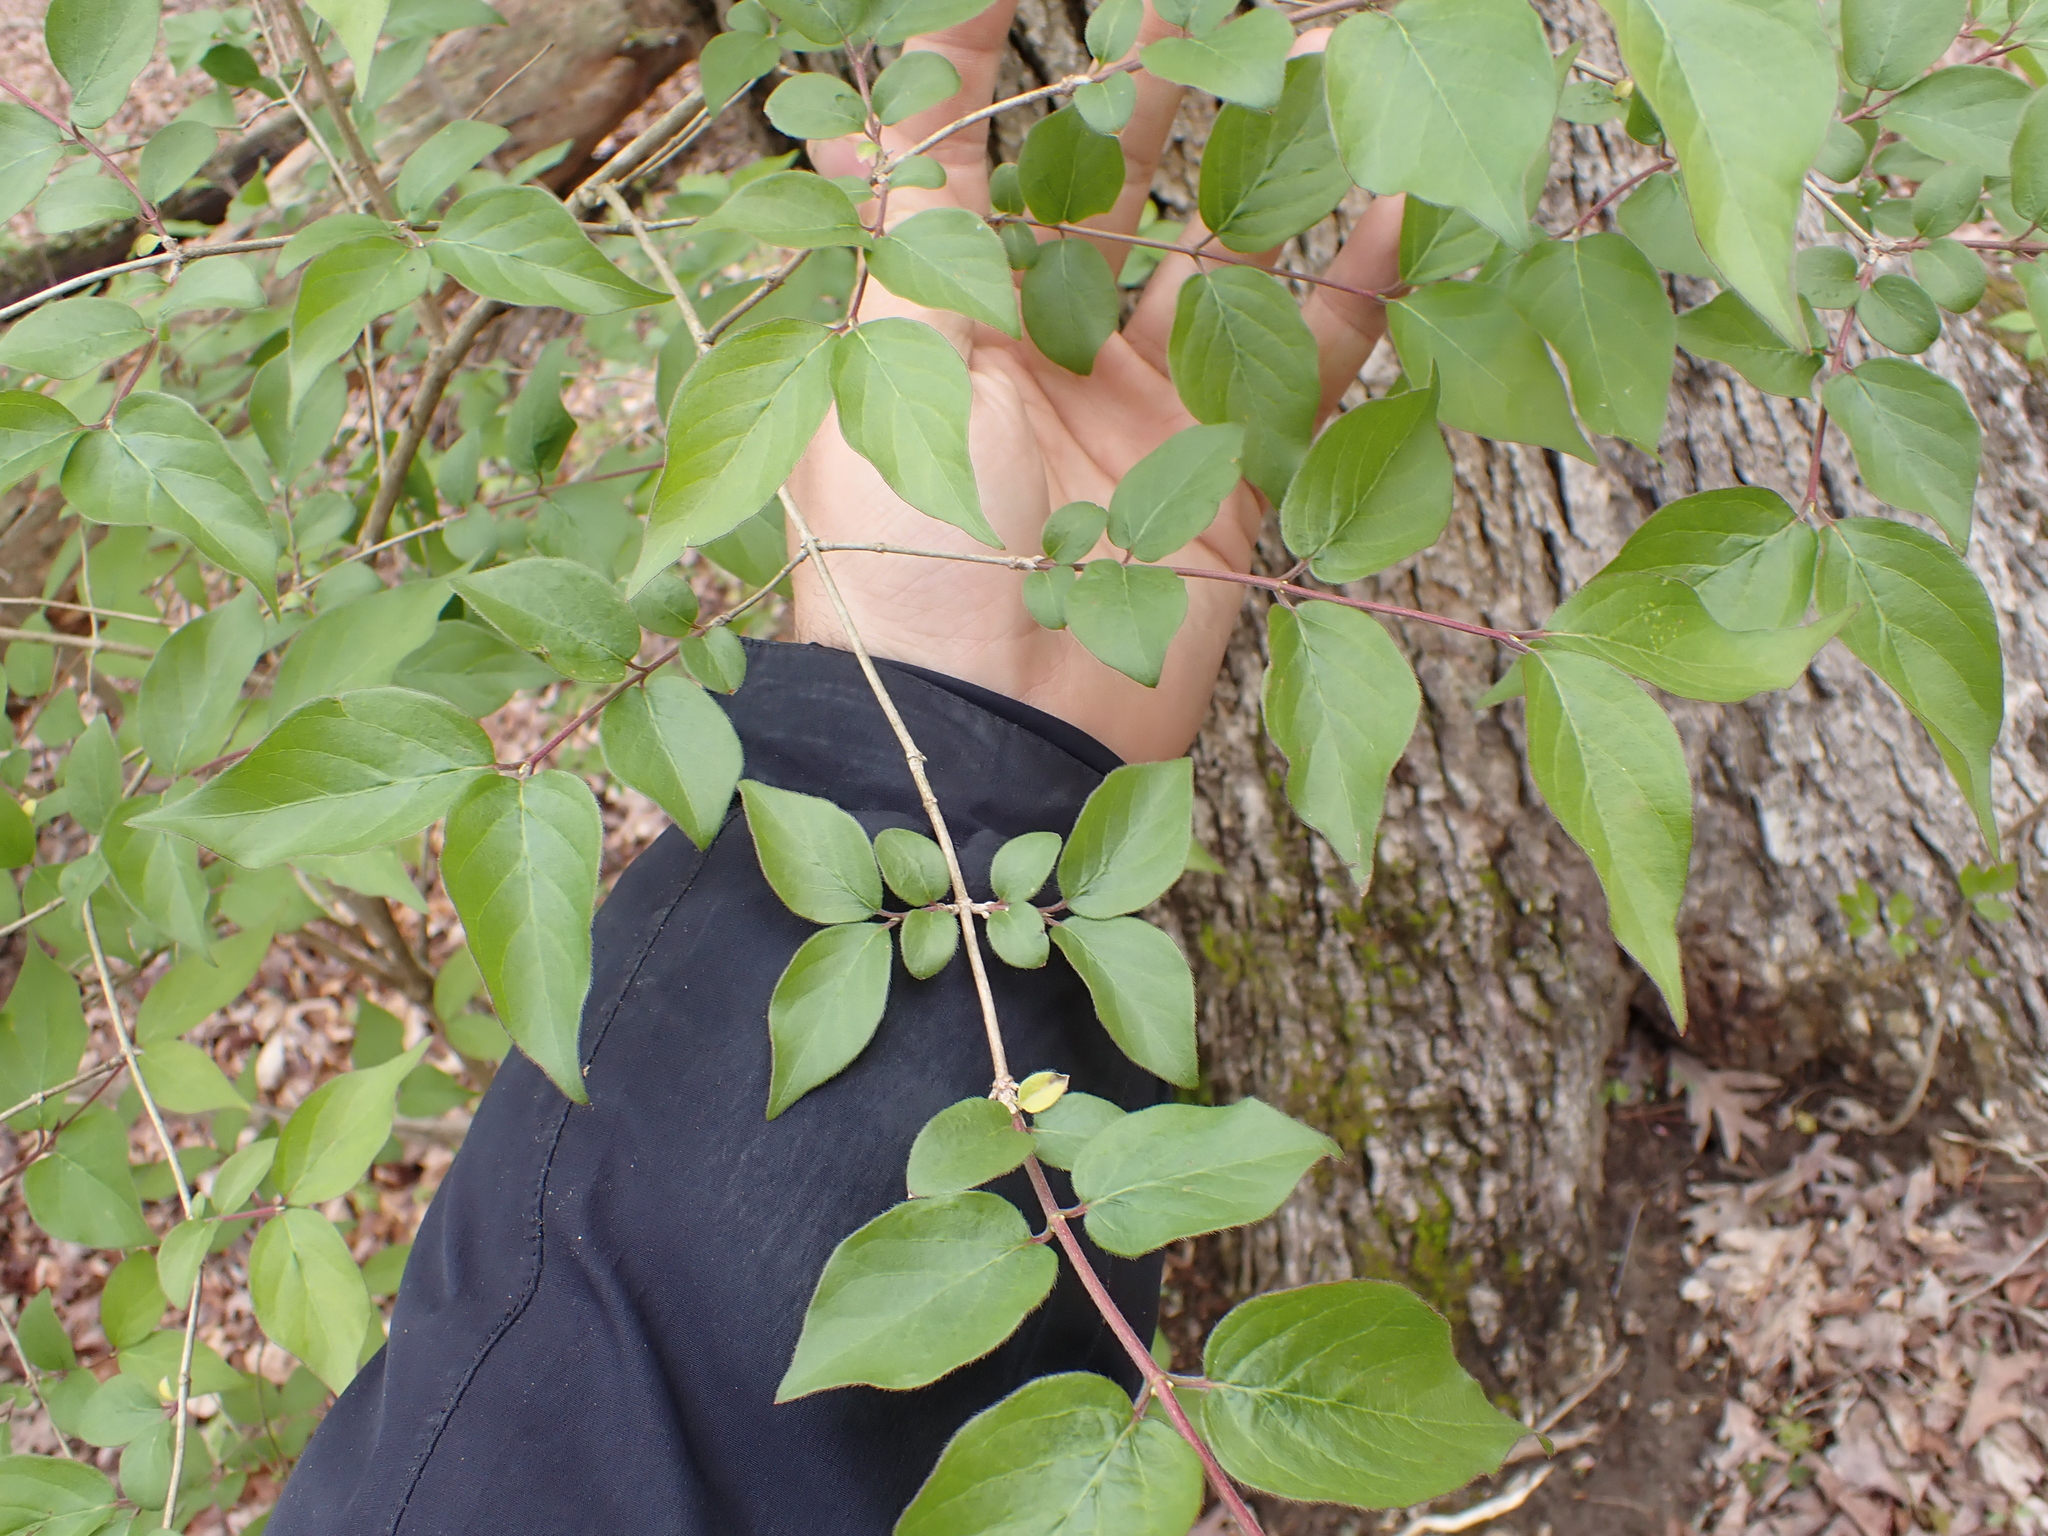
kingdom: Plantae
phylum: Tracheophyta
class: Magnoliopsida
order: Dipsacales
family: Caprifoliaceae
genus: Lonicera
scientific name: Lonicera maackii
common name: Amur honeysuckle
